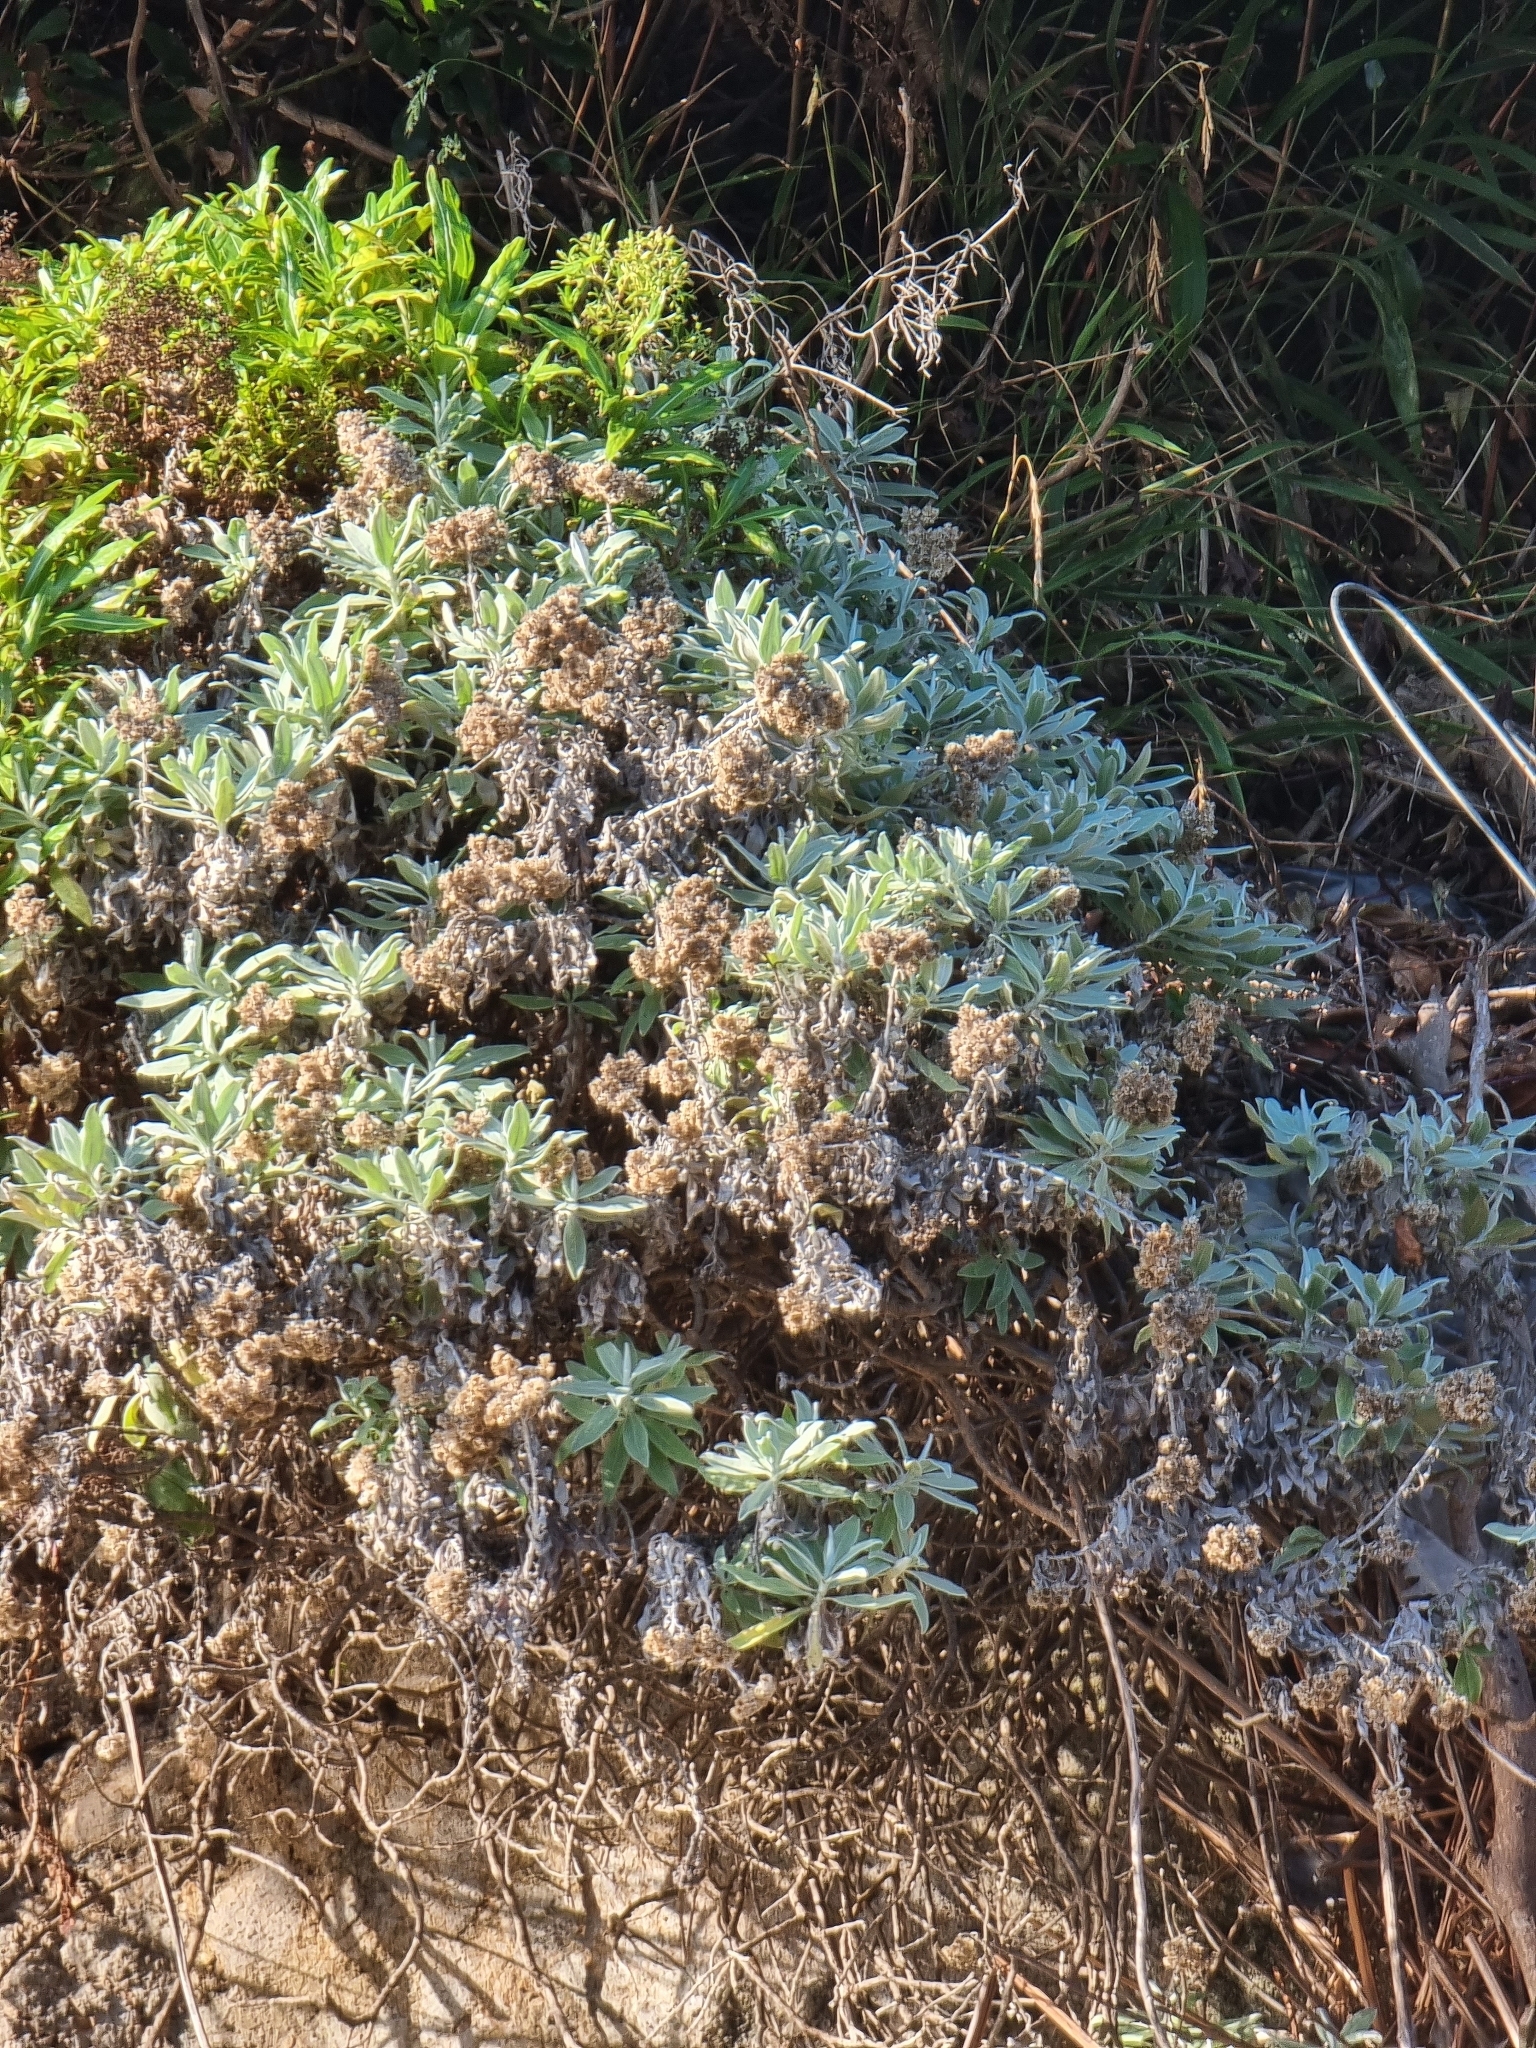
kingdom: Plantae
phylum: Tracheophyta
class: Magnoliopsida
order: Asterales
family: Asteraceae
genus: Helichrysum
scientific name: Helichrysum melaleucum
